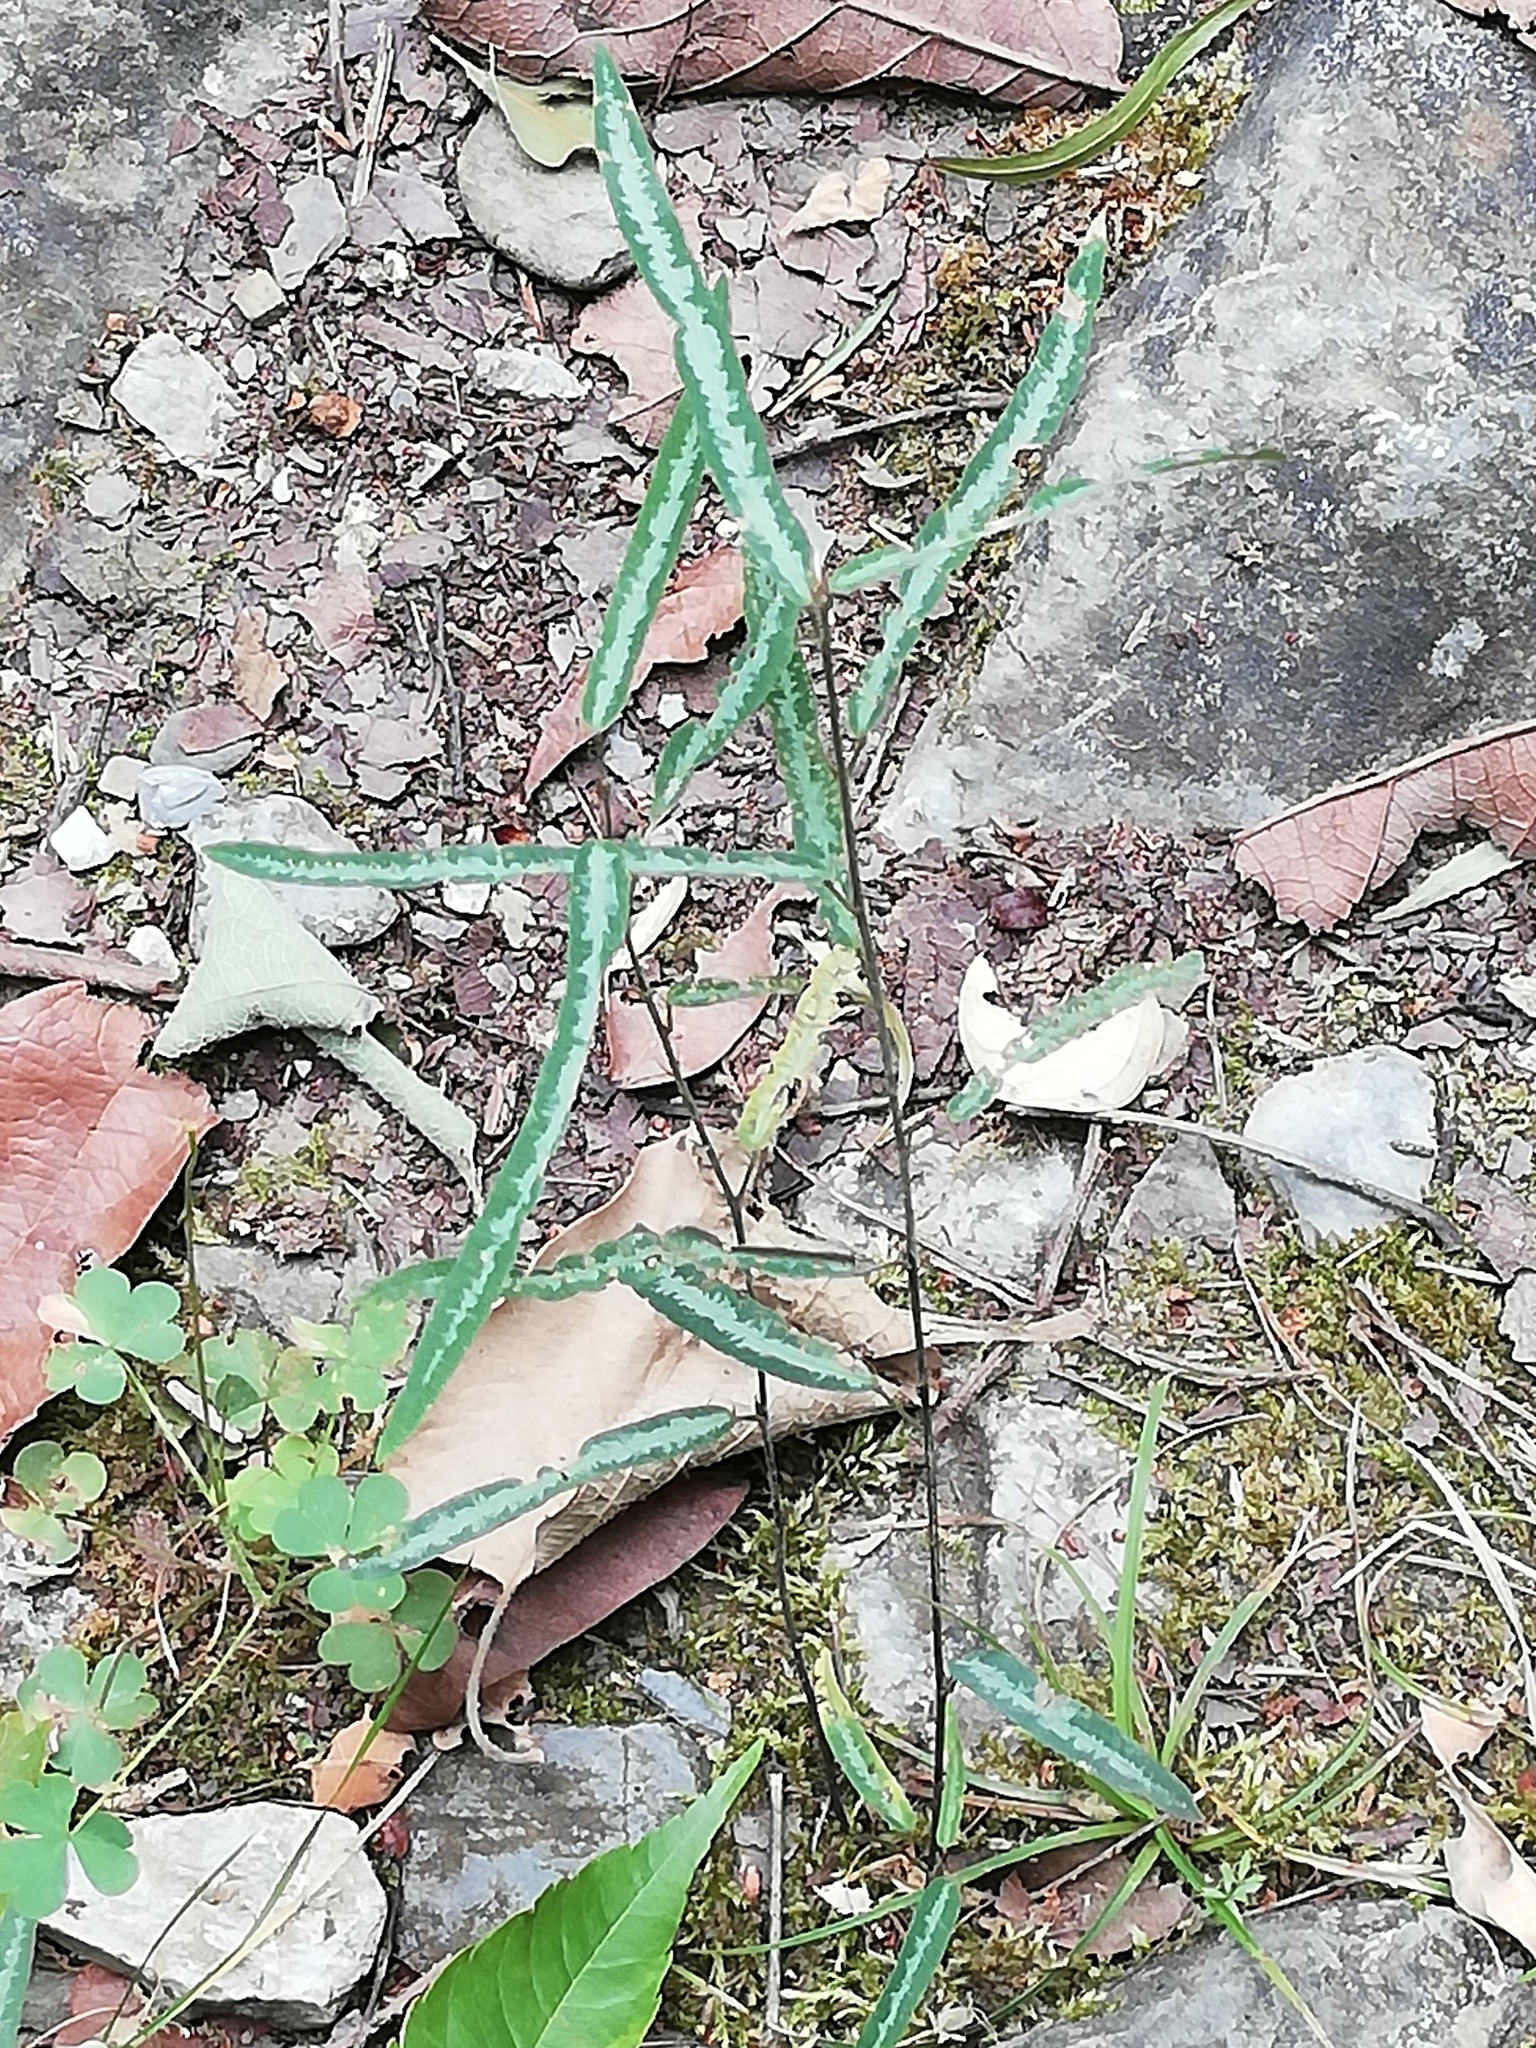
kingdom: Plantae
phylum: Tracheophyta
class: Magnoliopsida
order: Fabales
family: Fabaceae
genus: Desmodium
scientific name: Desmodium psilophyllum
